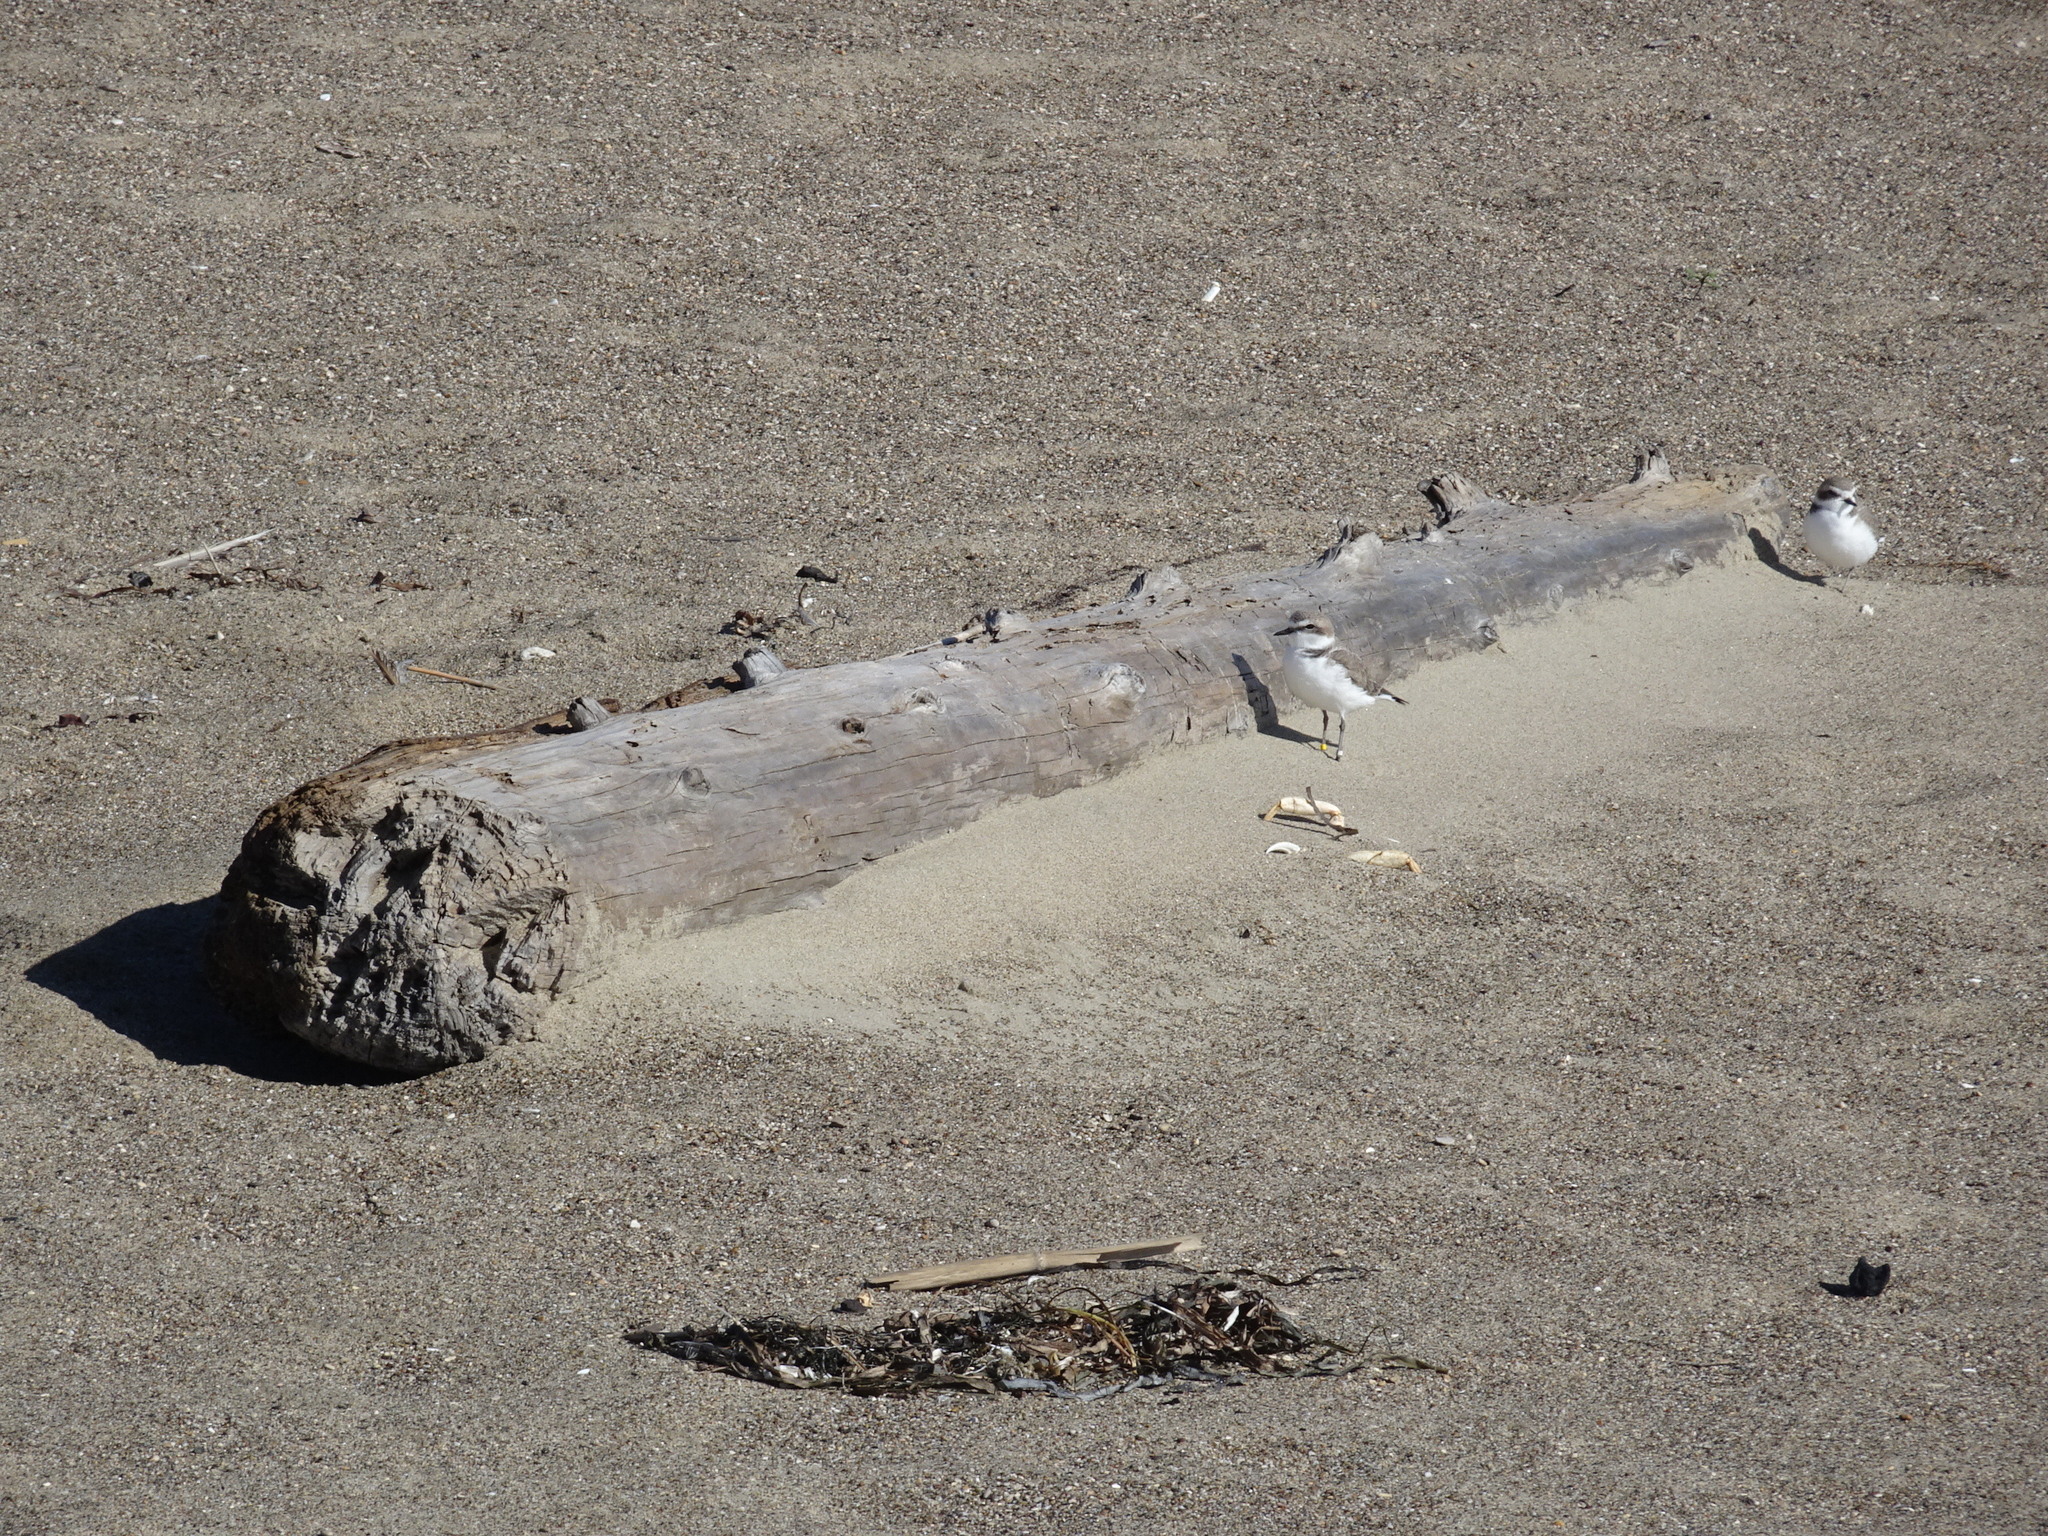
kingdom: Animalia
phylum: Chordata
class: Aves
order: Charadriiformes
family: Charadriidae
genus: Anarhynchus
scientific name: Anarhynchus
